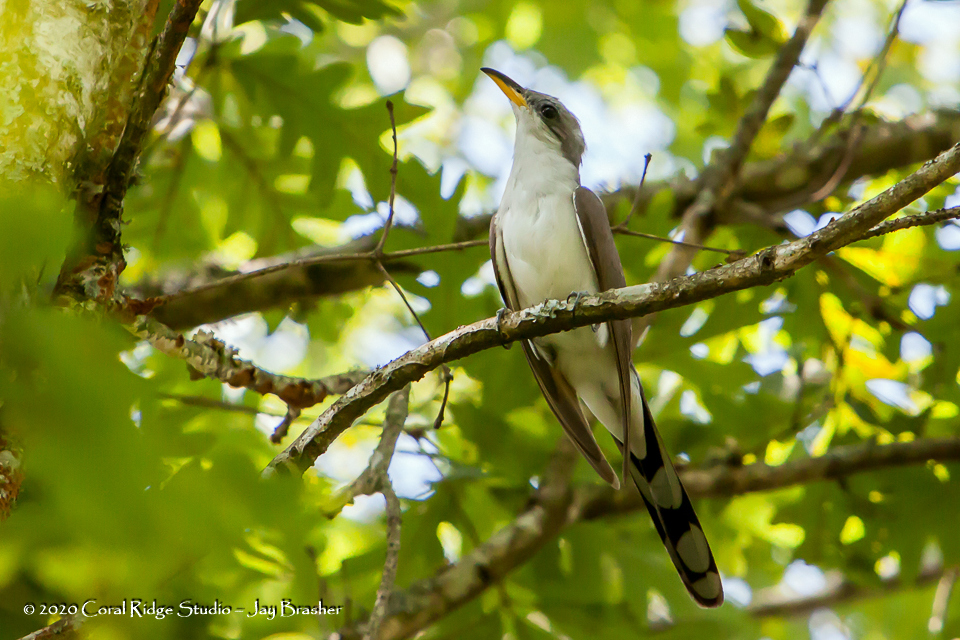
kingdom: Animalia
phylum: Chordata
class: Aves
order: Cuculiformes
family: Cuculidae
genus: Coccyzus
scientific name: Coccyzus americanus
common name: Yellow-billed cuckoo
